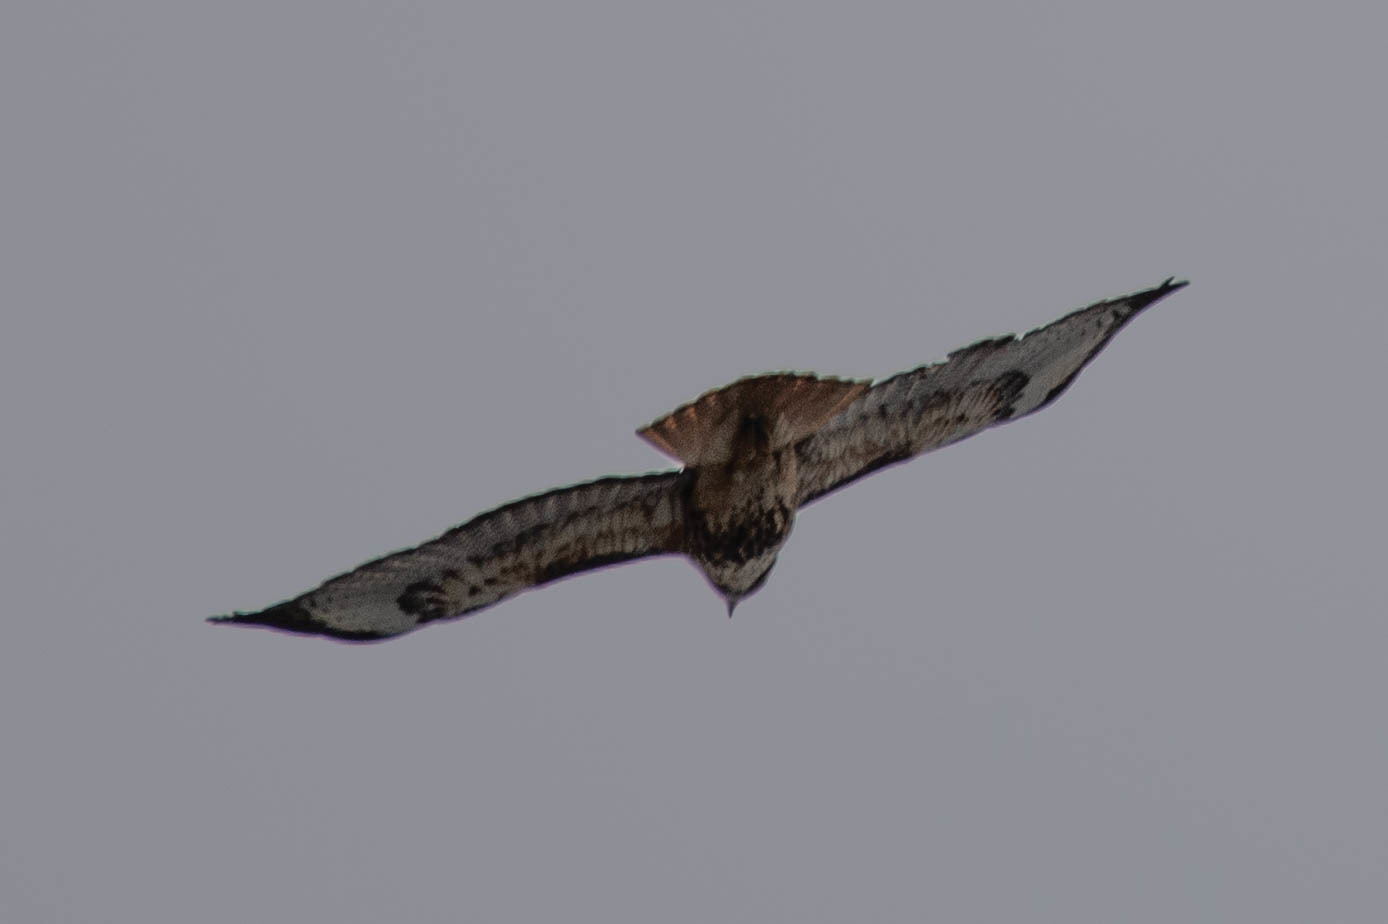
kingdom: Animalia
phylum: Chordata
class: Aves
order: Accipitriformes
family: Accipitridae
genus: Buteo
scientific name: Buteo jamaicensis
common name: Red-tailed hawk
